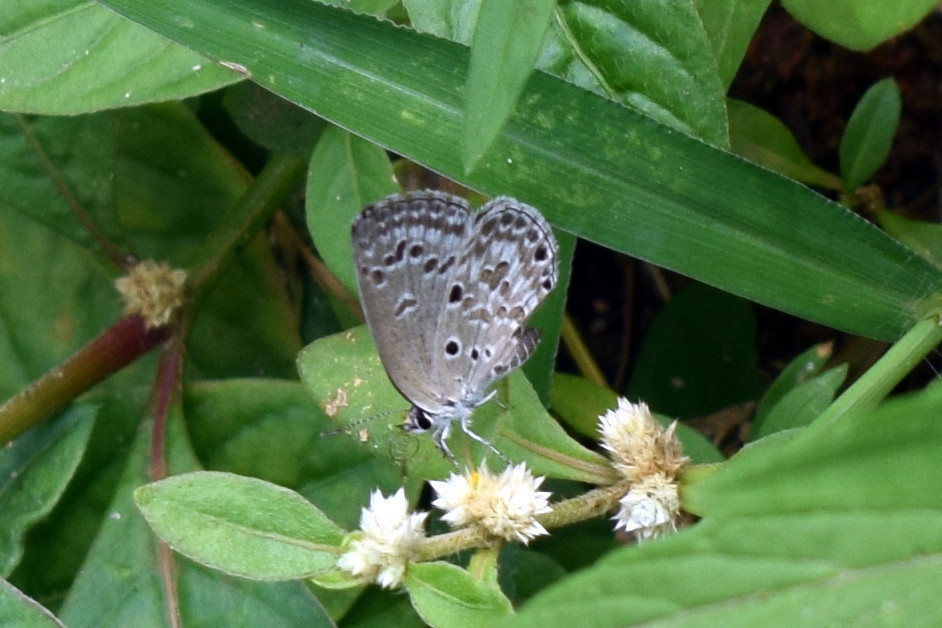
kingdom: Animalia
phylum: Arthropoda
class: Insecta
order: Lepidoptera
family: Lycaenidae
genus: Chilades
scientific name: Chilades laius
